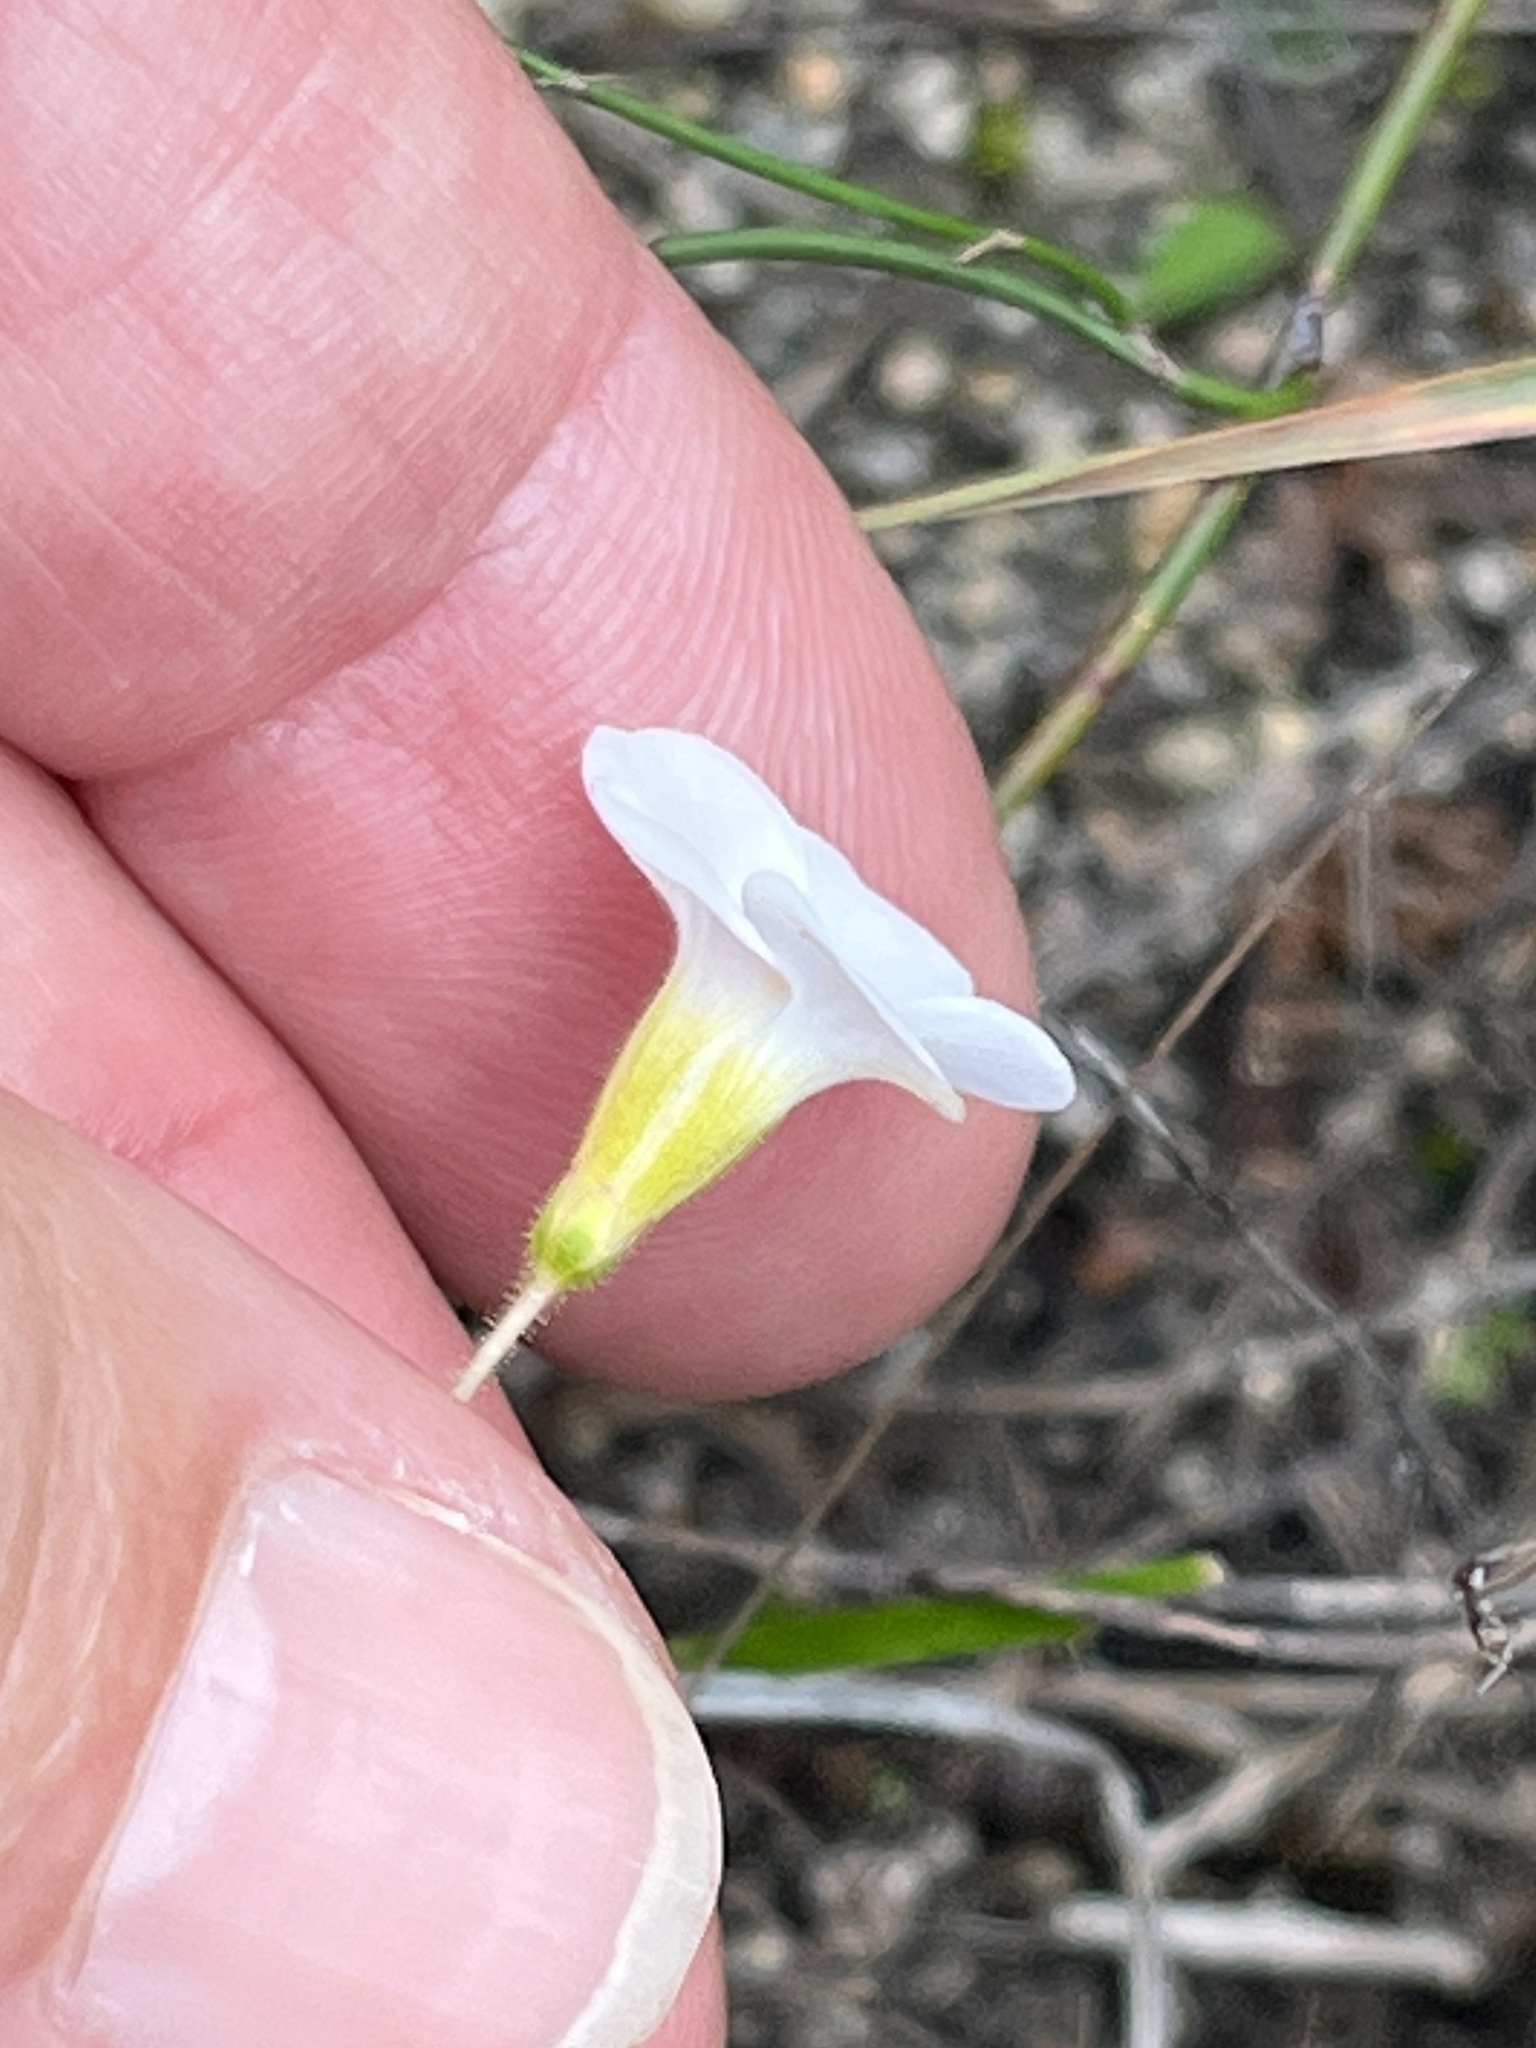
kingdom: Plantae
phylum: Tracheophyta
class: Magnoliopsida
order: Oxalidales
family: Oxalidaceae
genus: Oxalis
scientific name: Oxalis punctata
